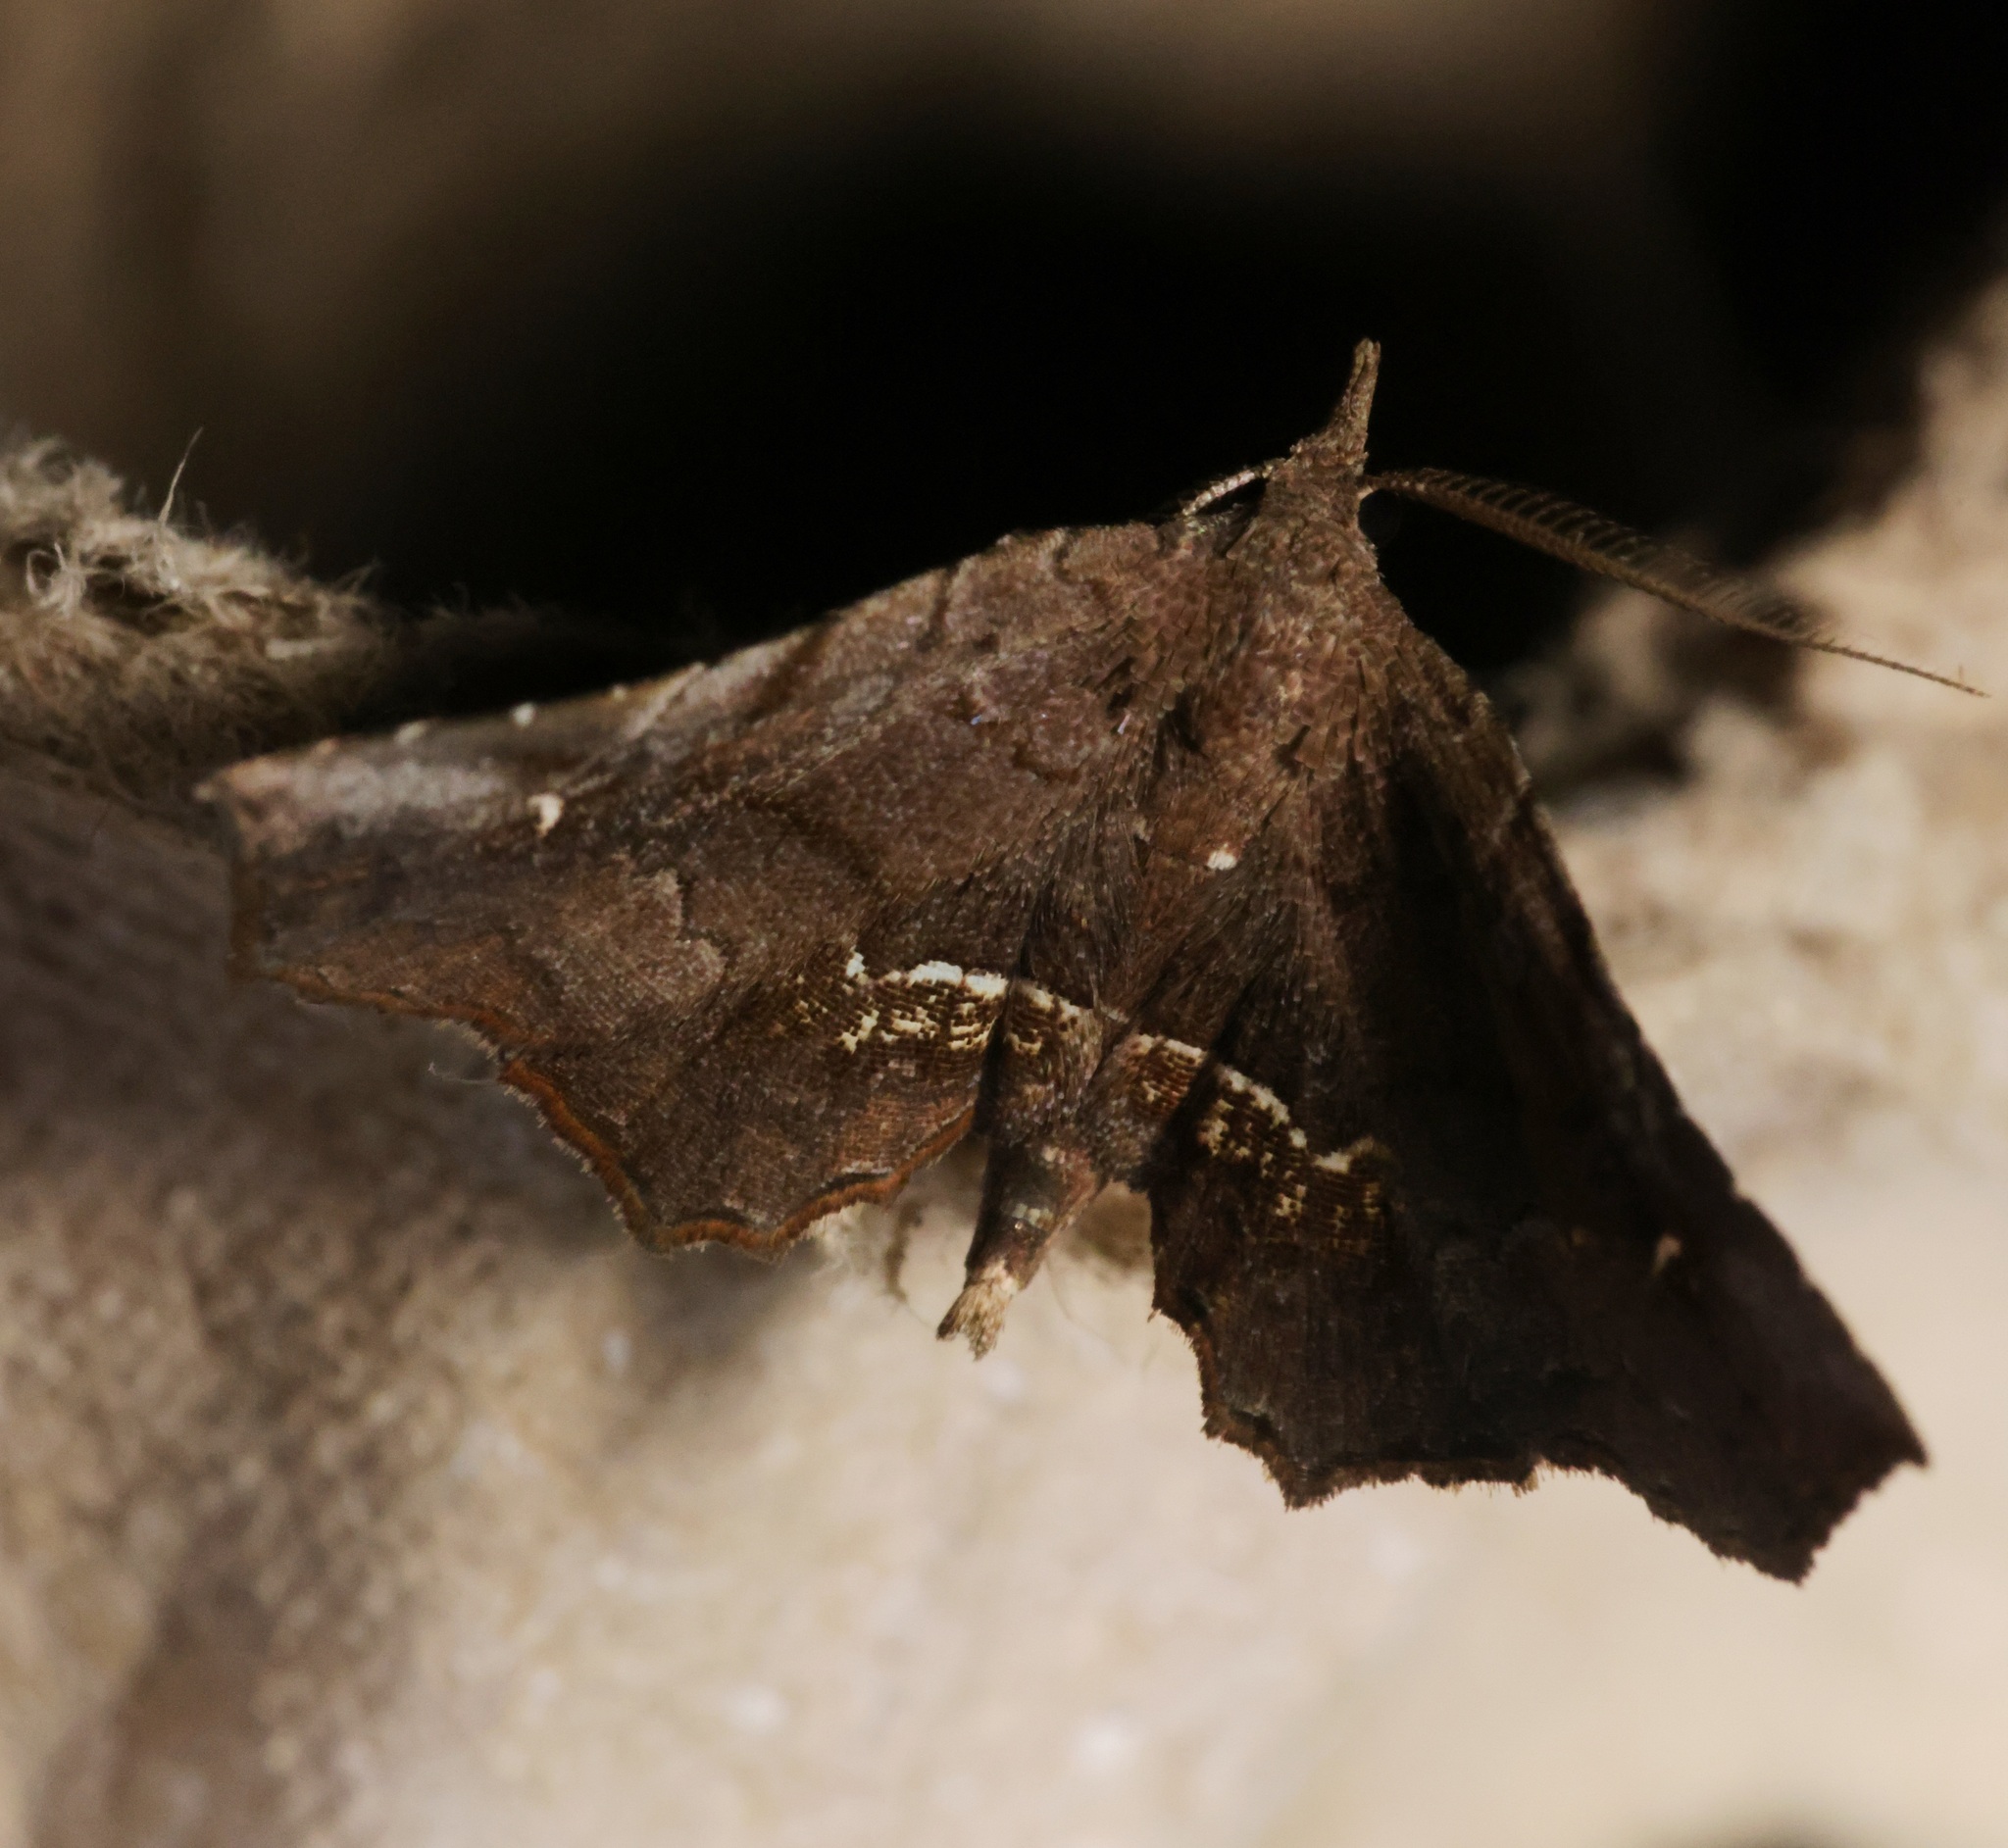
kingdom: Animalia
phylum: Arthropoda
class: Insecta
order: Lepidoptera
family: Erebidae
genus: Throana
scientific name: Throana pectinifer
